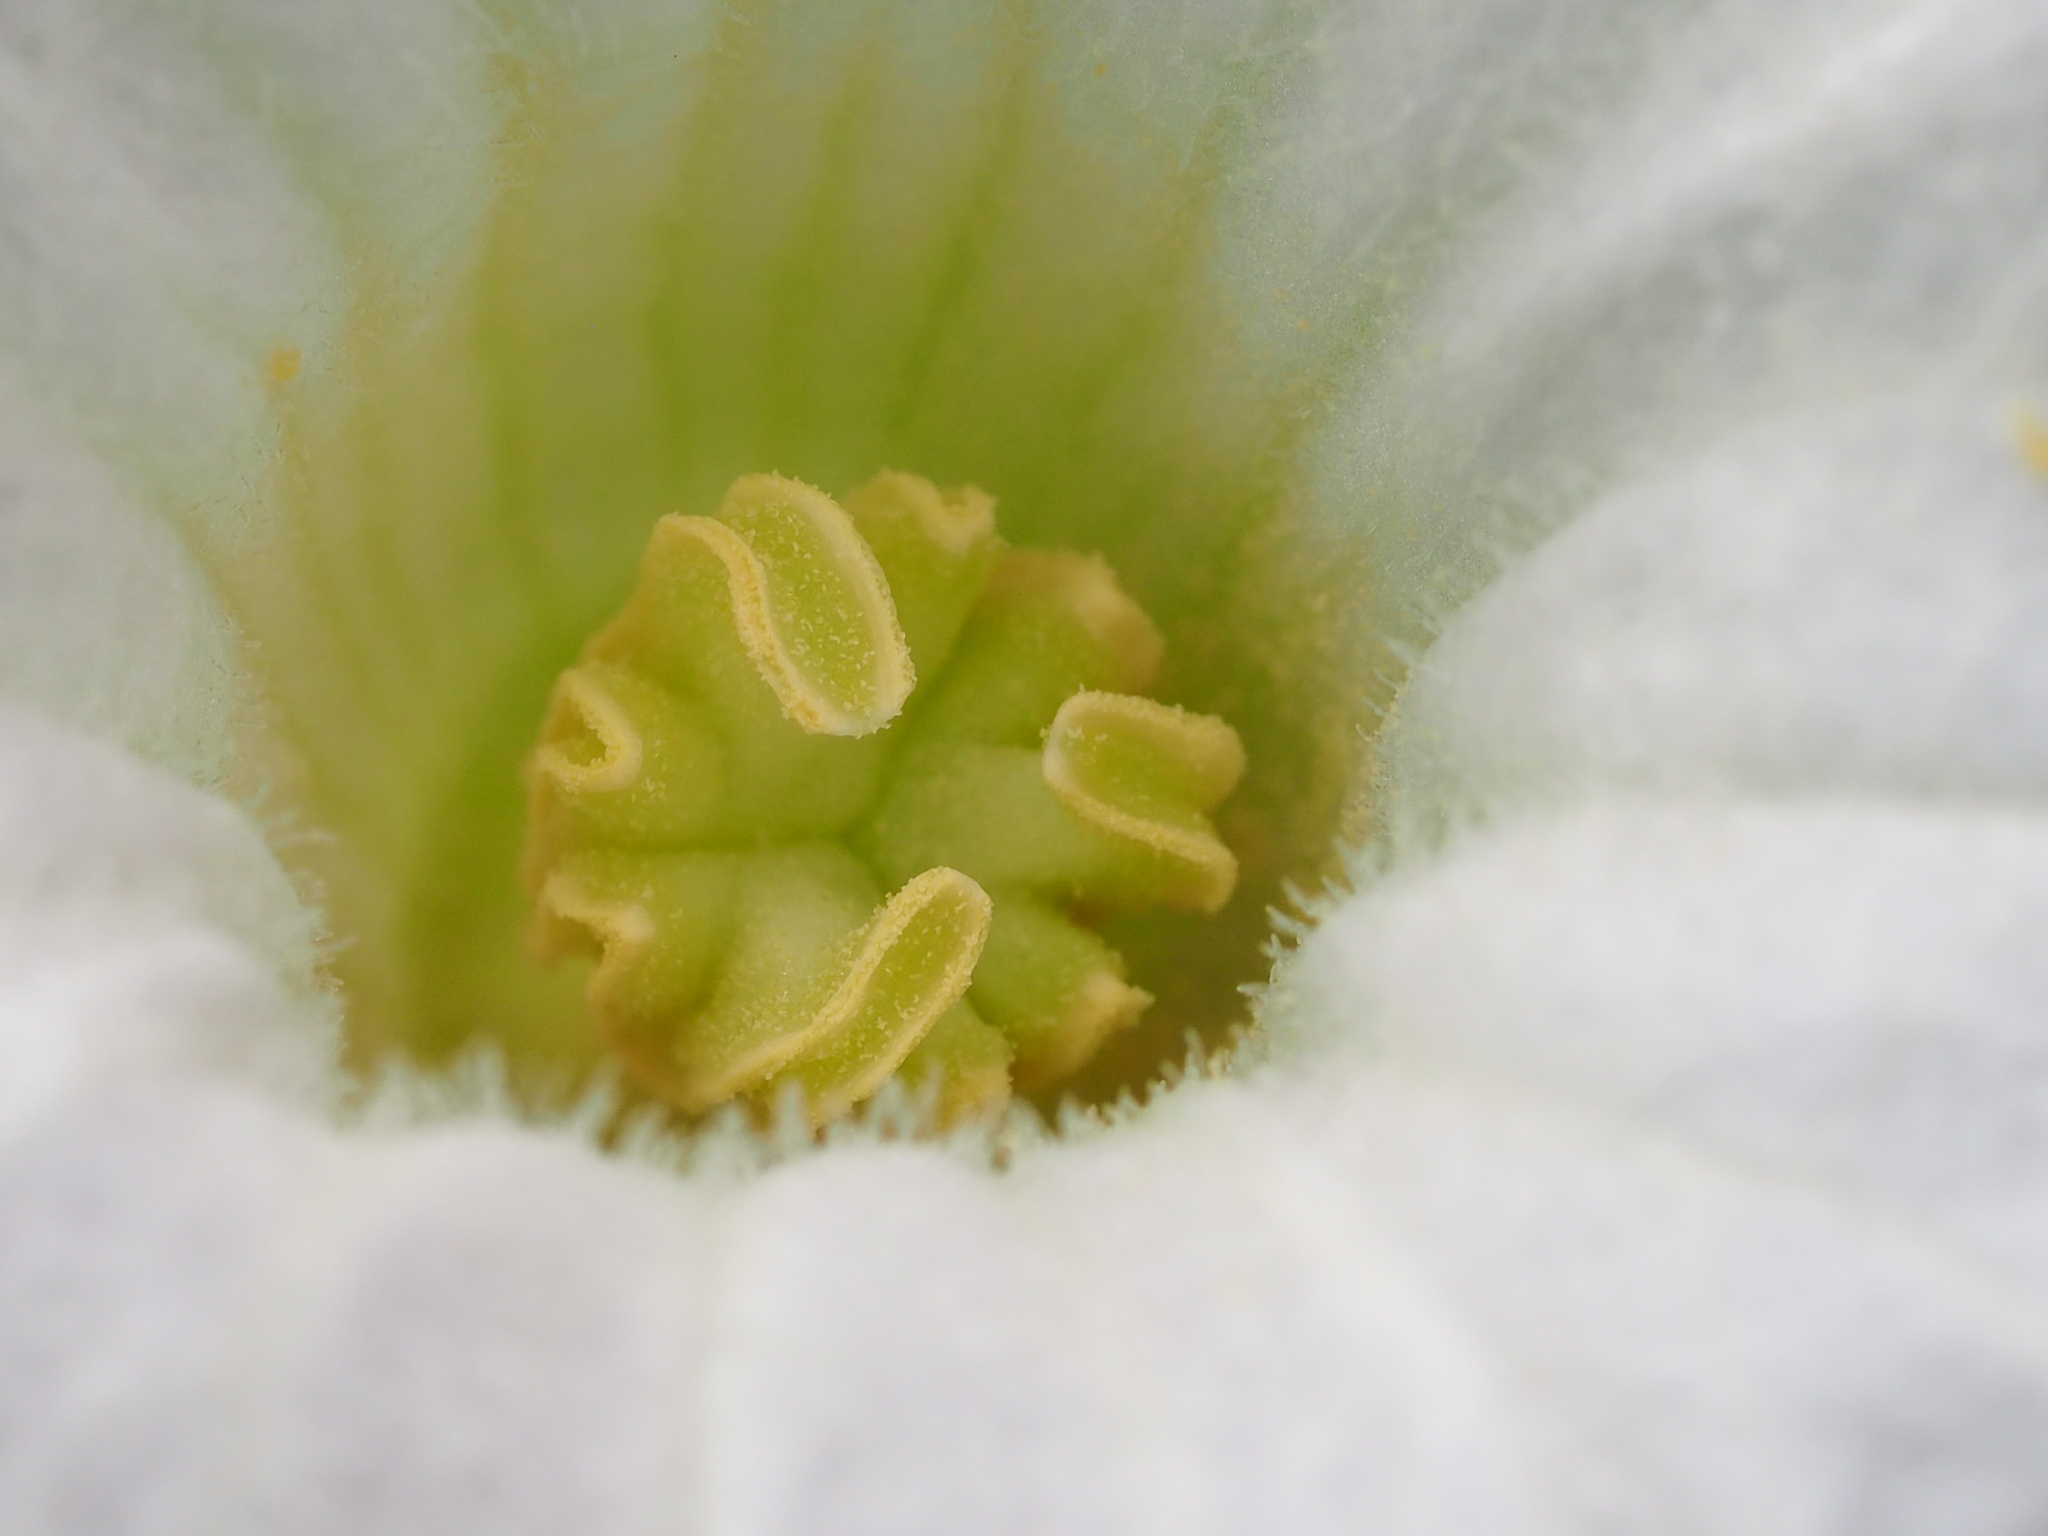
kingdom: Plantae
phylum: Tracheophyta
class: Magnoliopsida
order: Cucurbitales
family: Cucurbitaceae
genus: Coccinia
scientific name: Coccinia grandis
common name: Ivy gourd
